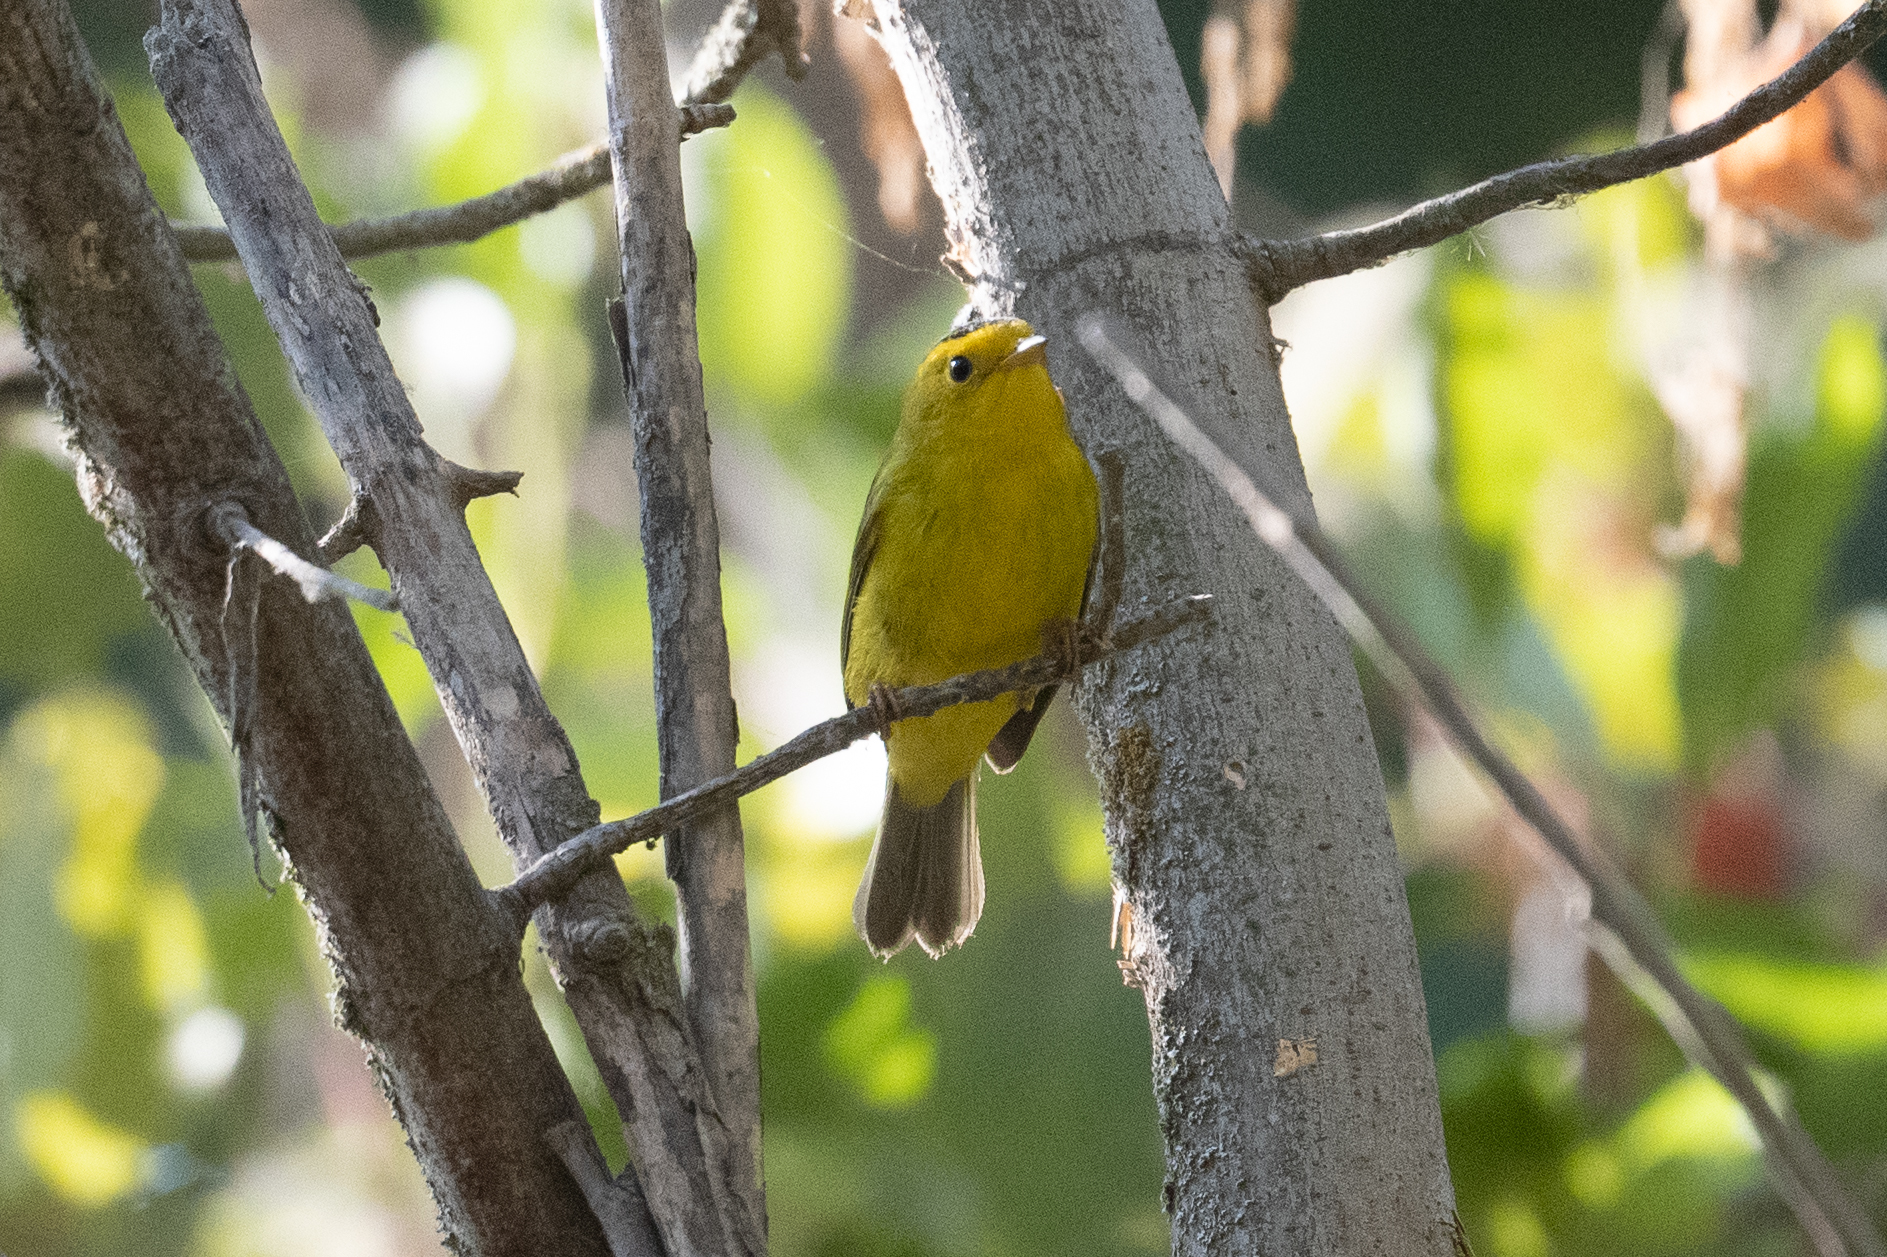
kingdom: Animalia
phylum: Chordata
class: Aves
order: Passeriformes
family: Parulidae
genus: Cardellina
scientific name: Cardellina pusilla
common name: Wilson's warbler
